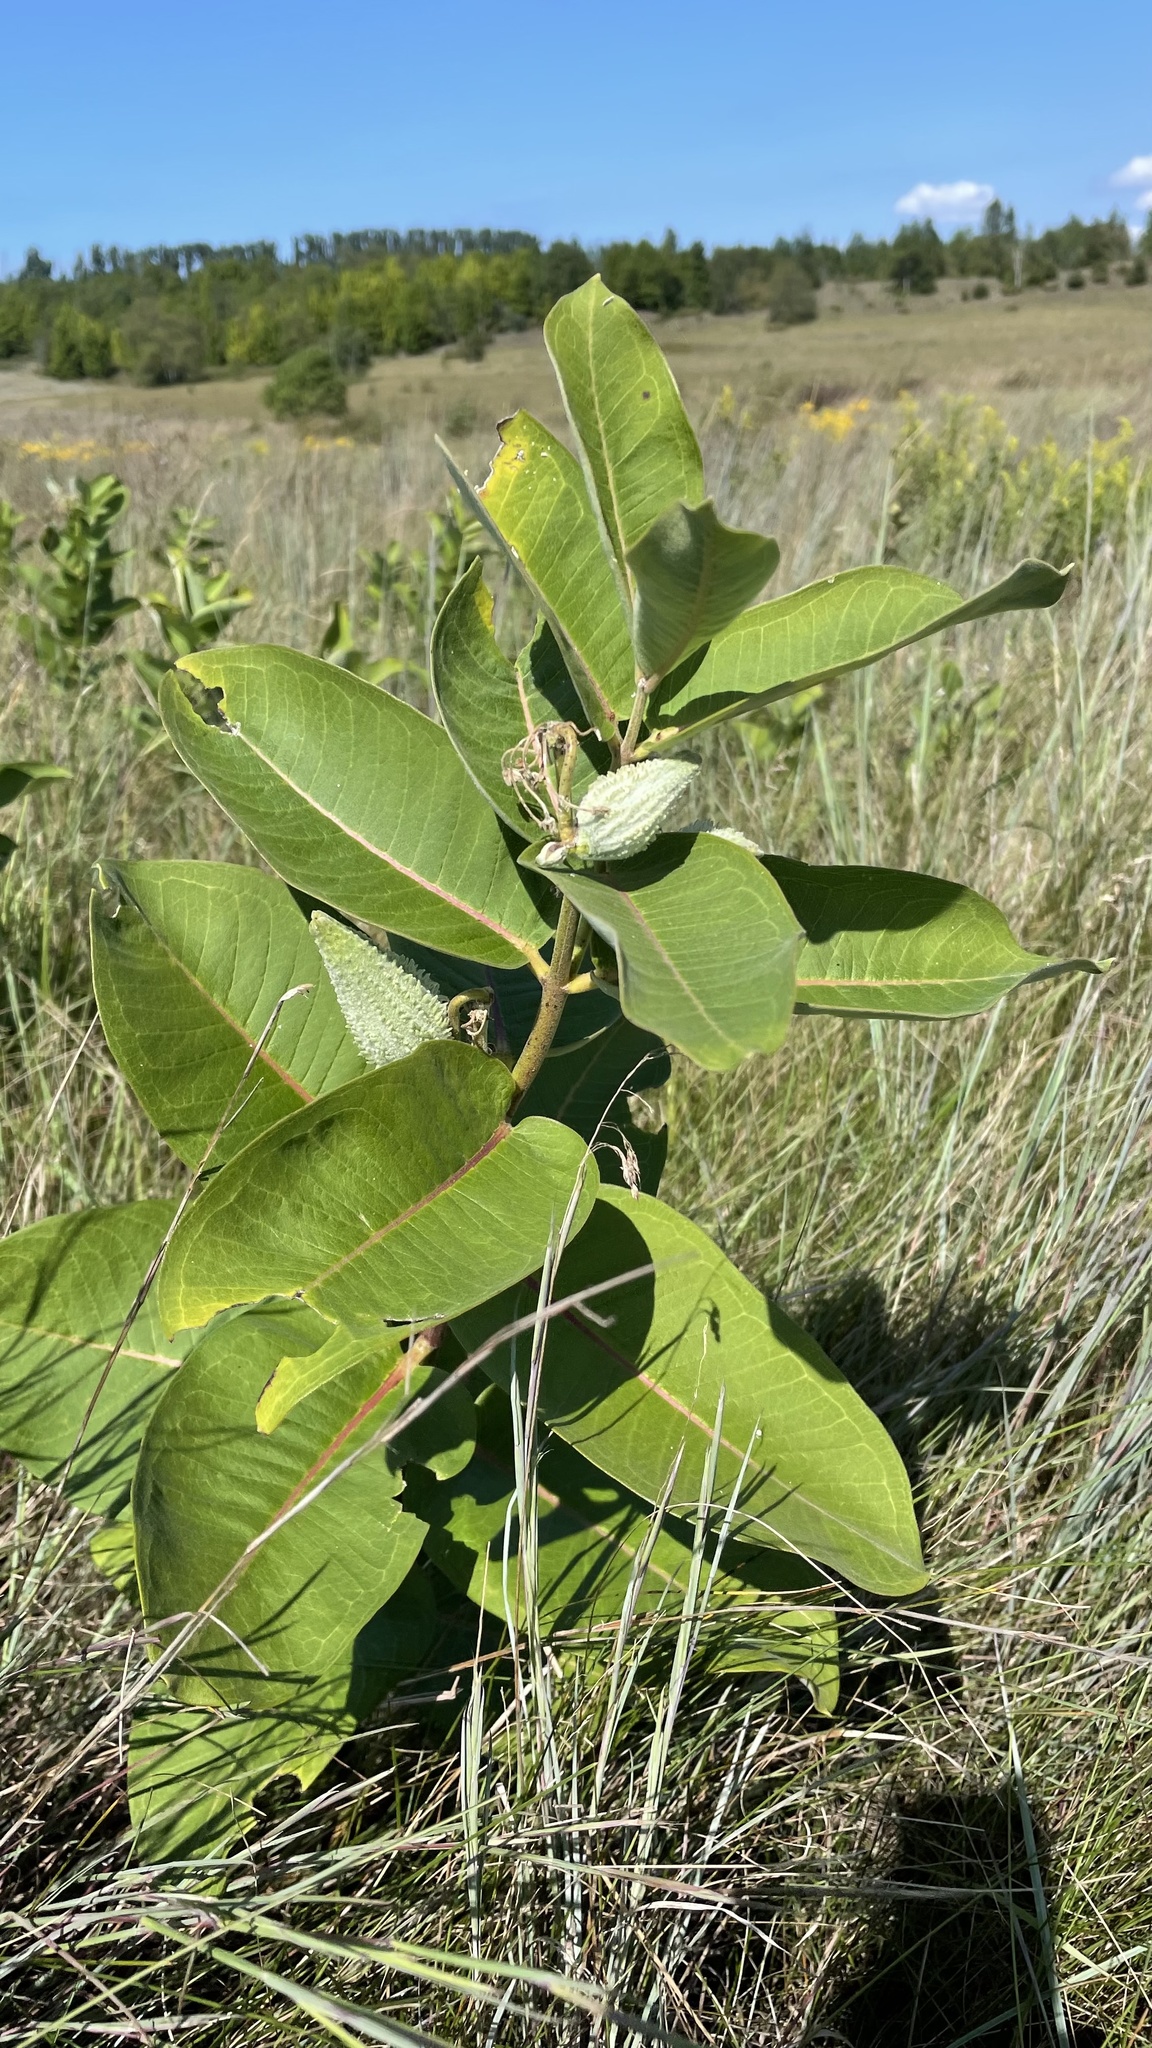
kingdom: Plantae
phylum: Tracheophyta
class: Magnoliopsida
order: Gentianales
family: Apocynaceae
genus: Asclepias
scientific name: Asclepias syriaca
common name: Common milkweed
